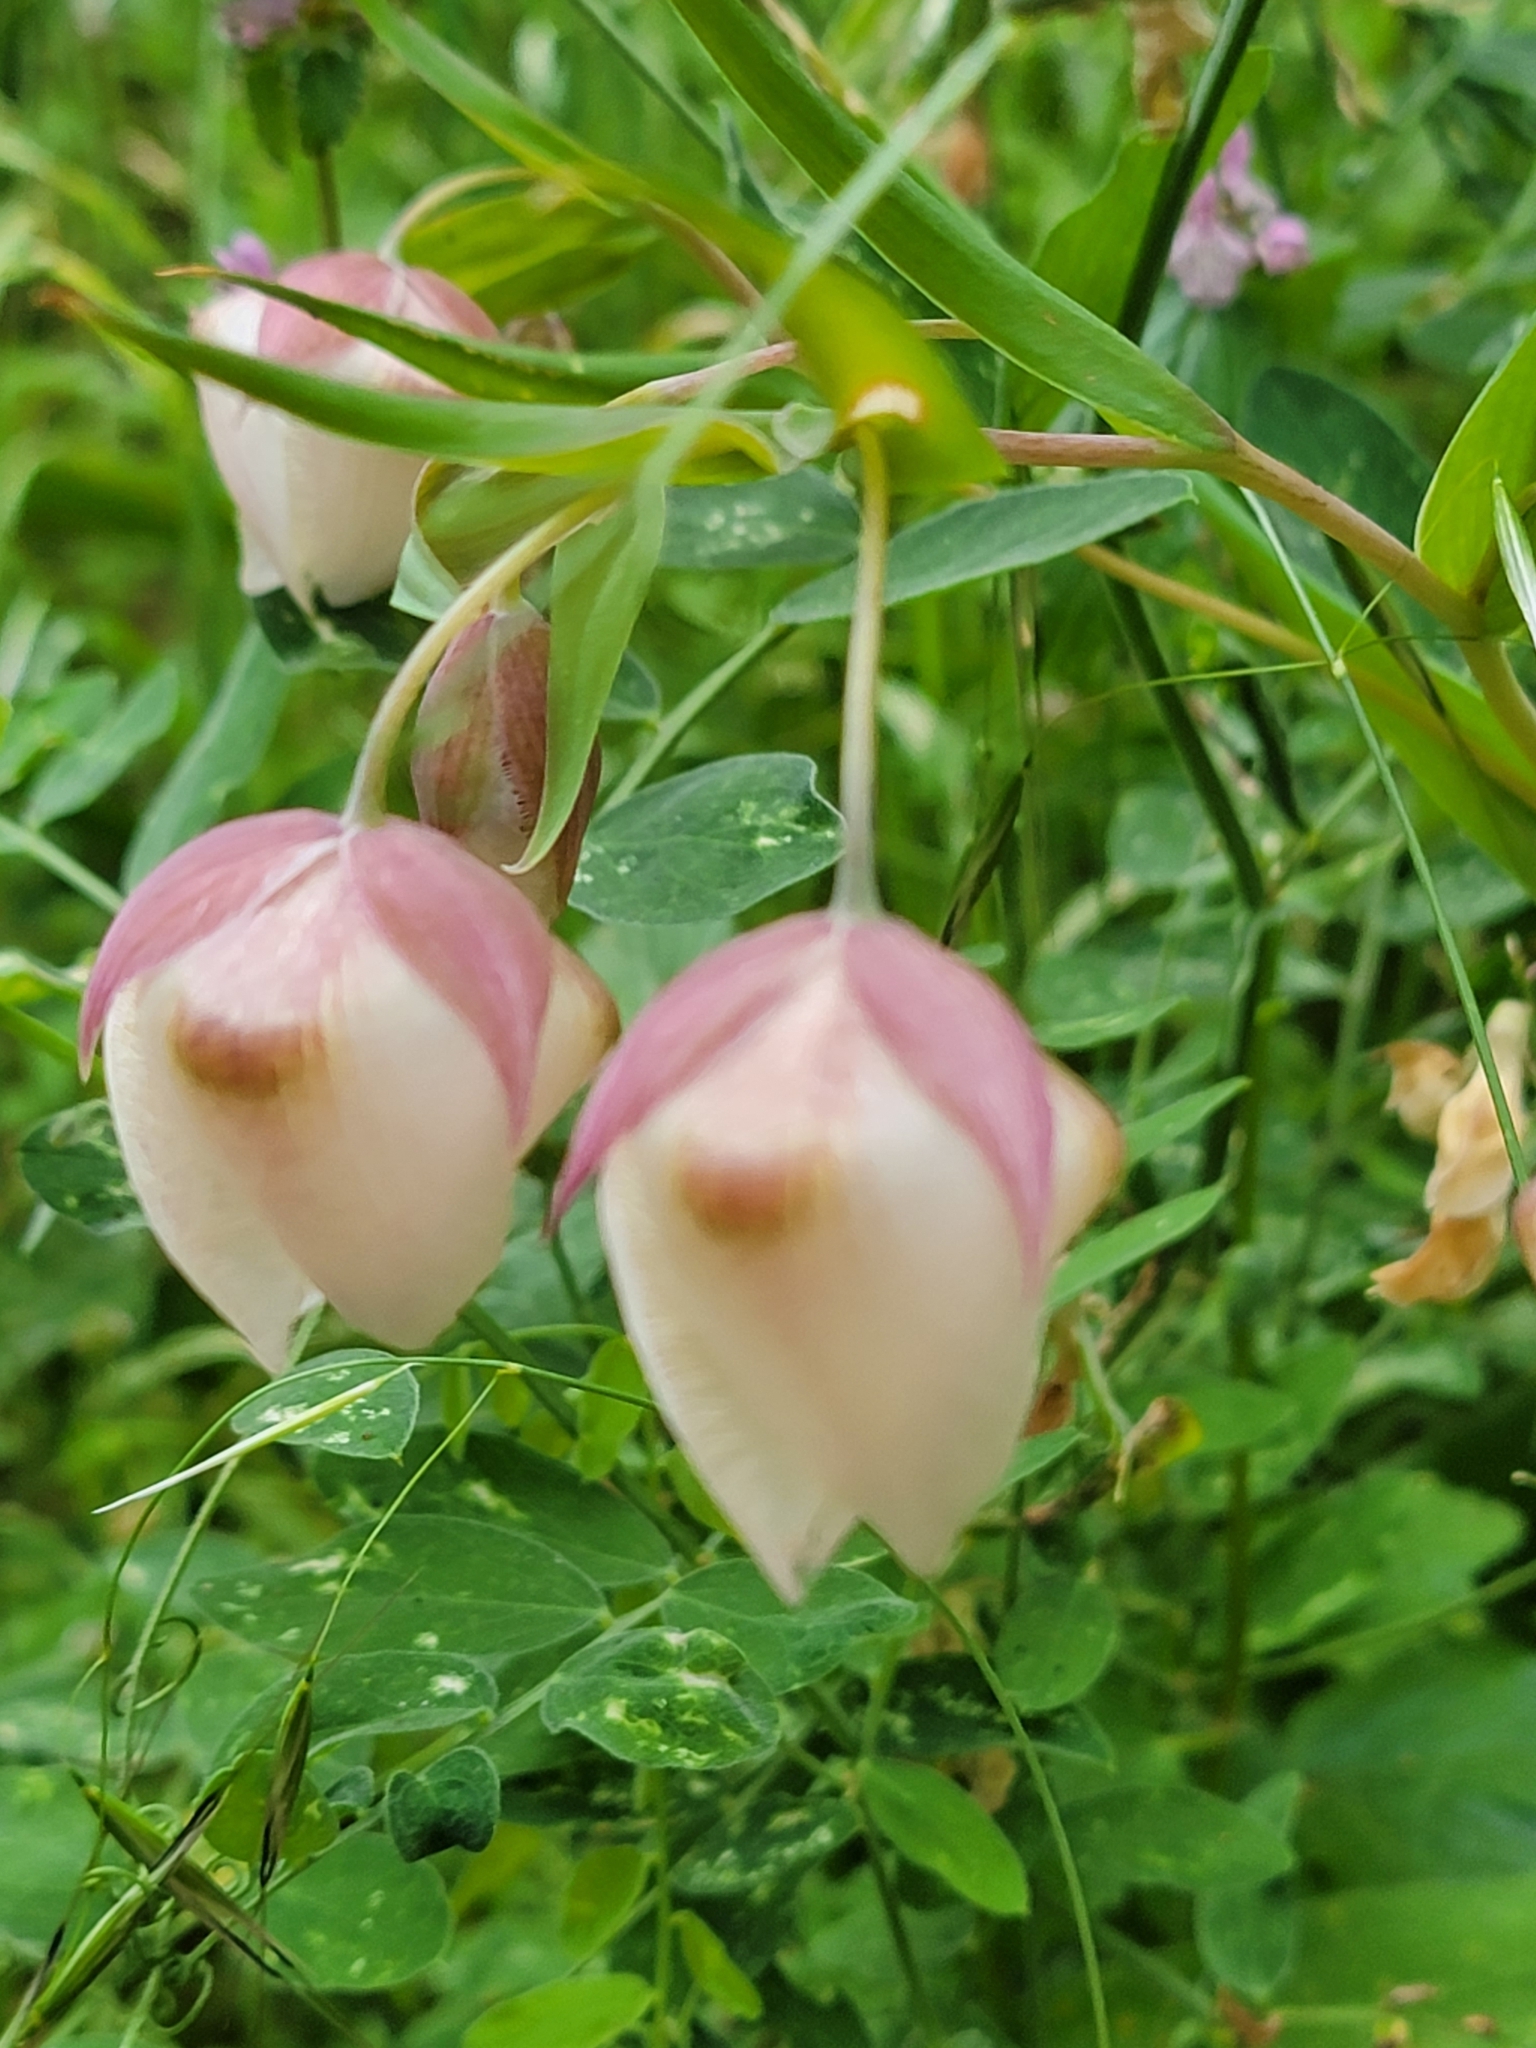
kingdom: Plantae
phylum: Tracheophyta
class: Liliopsida
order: Liliales
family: Liliaceae
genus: Calochortus
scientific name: Calochortus albus
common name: Fairy-lantern
